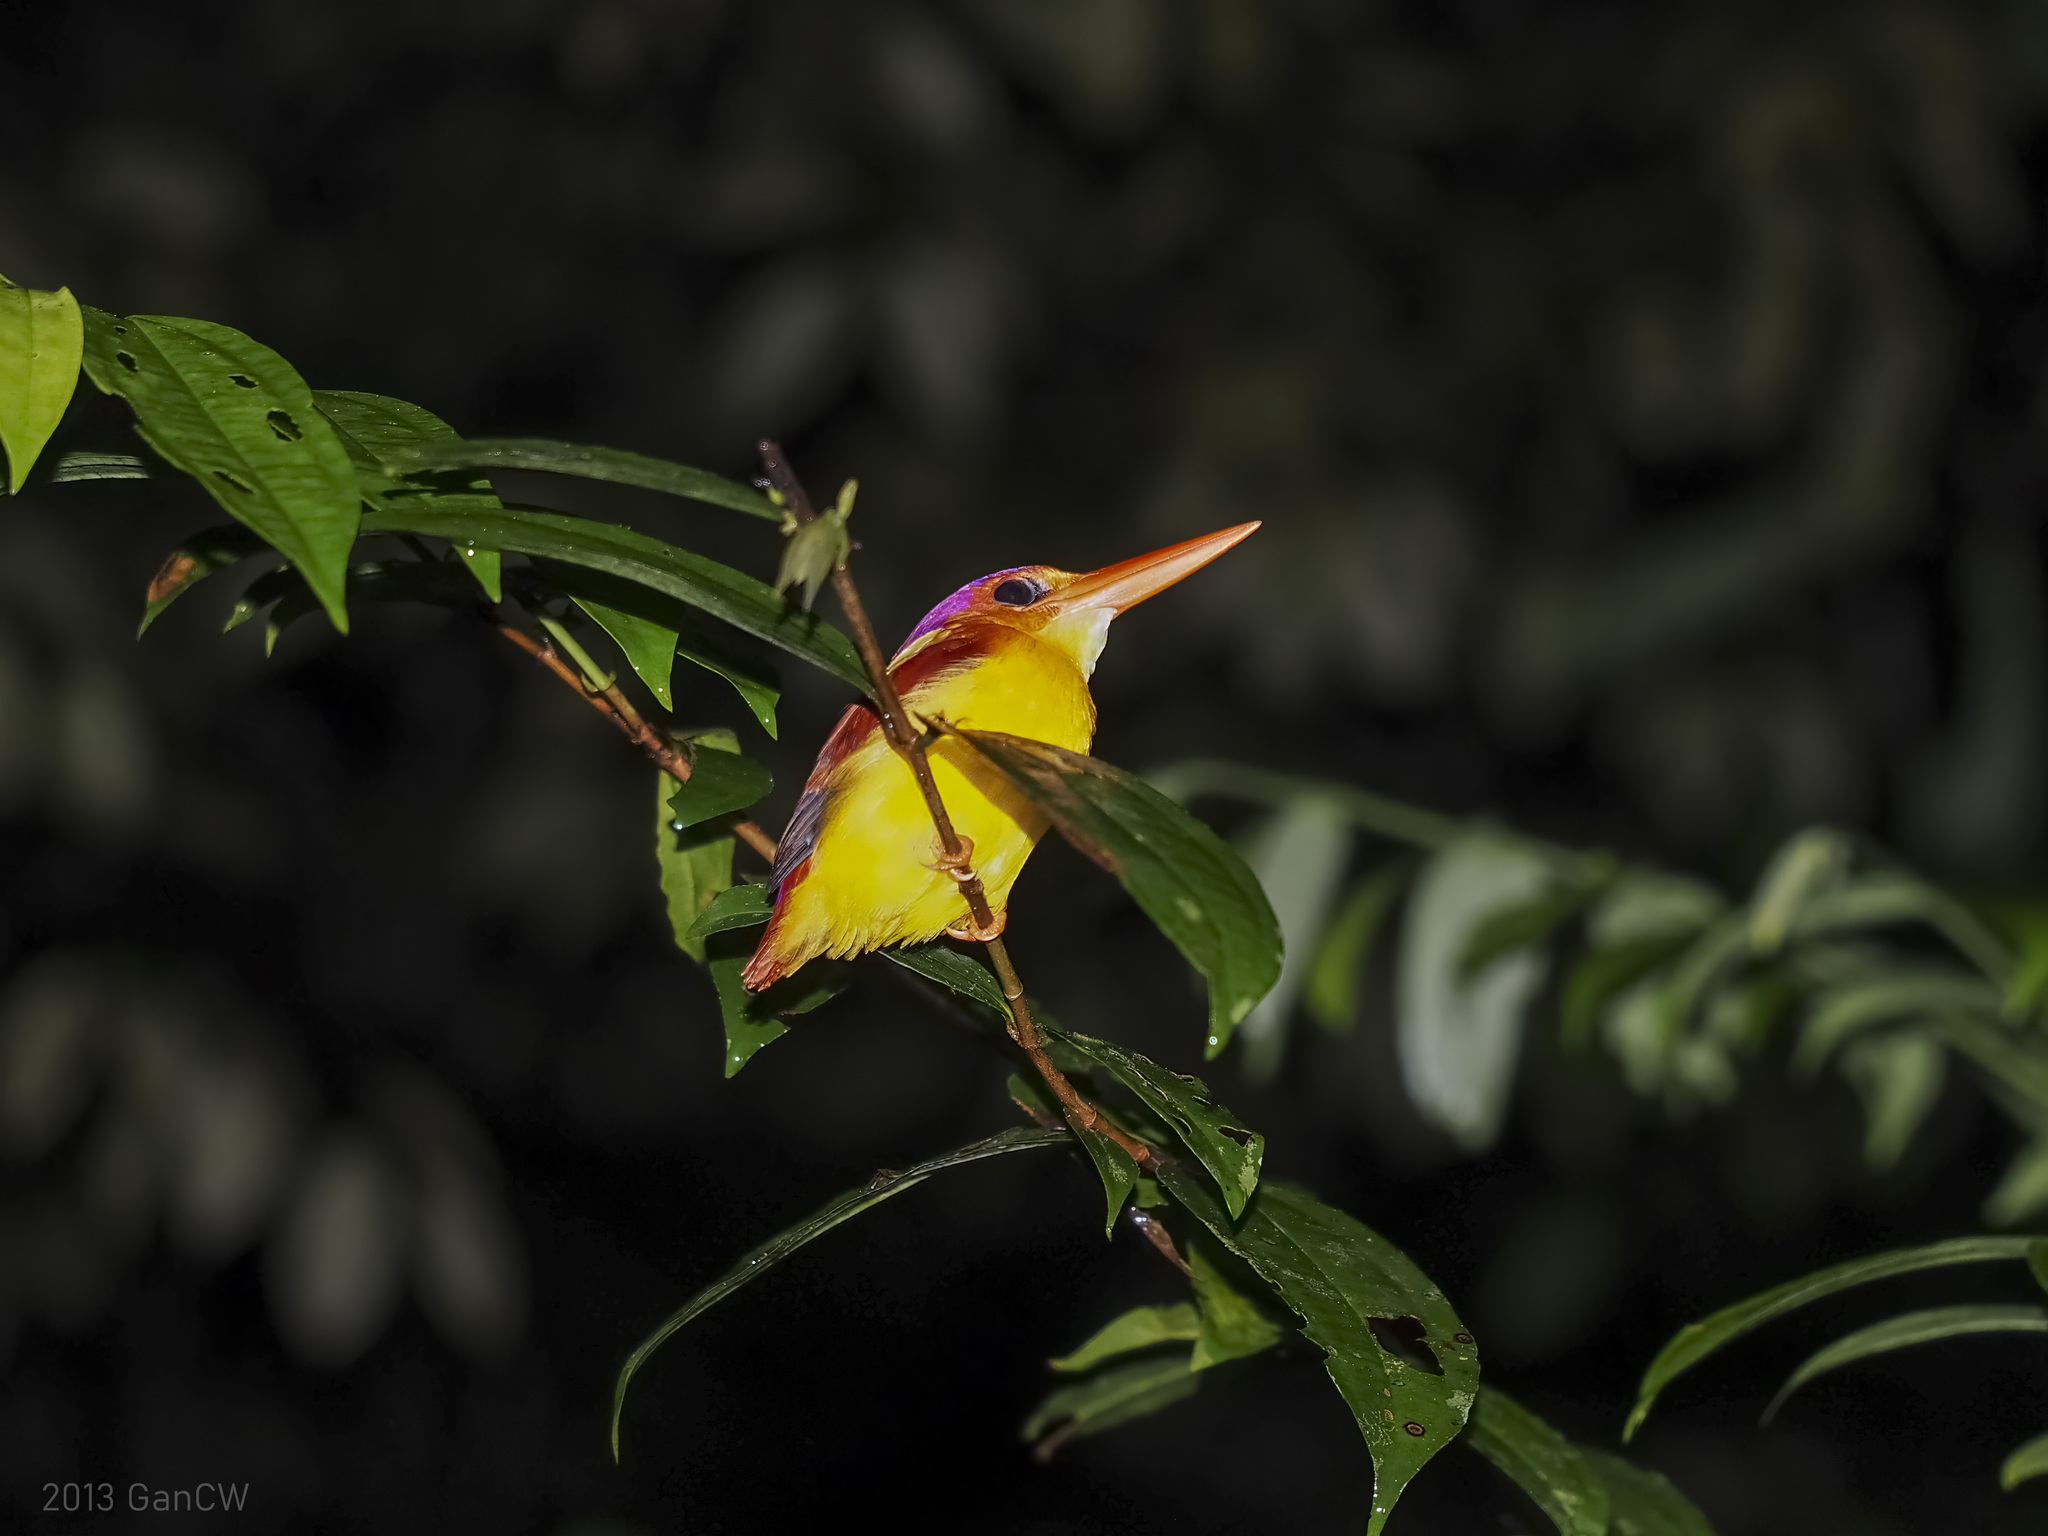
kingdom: Animalia
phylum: Chordata
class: Aves
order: Coraciiformes
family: Alcedinidae
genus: Ceyx
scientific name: Ceyx erithaca
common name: Oriental dwarf kingfisher
